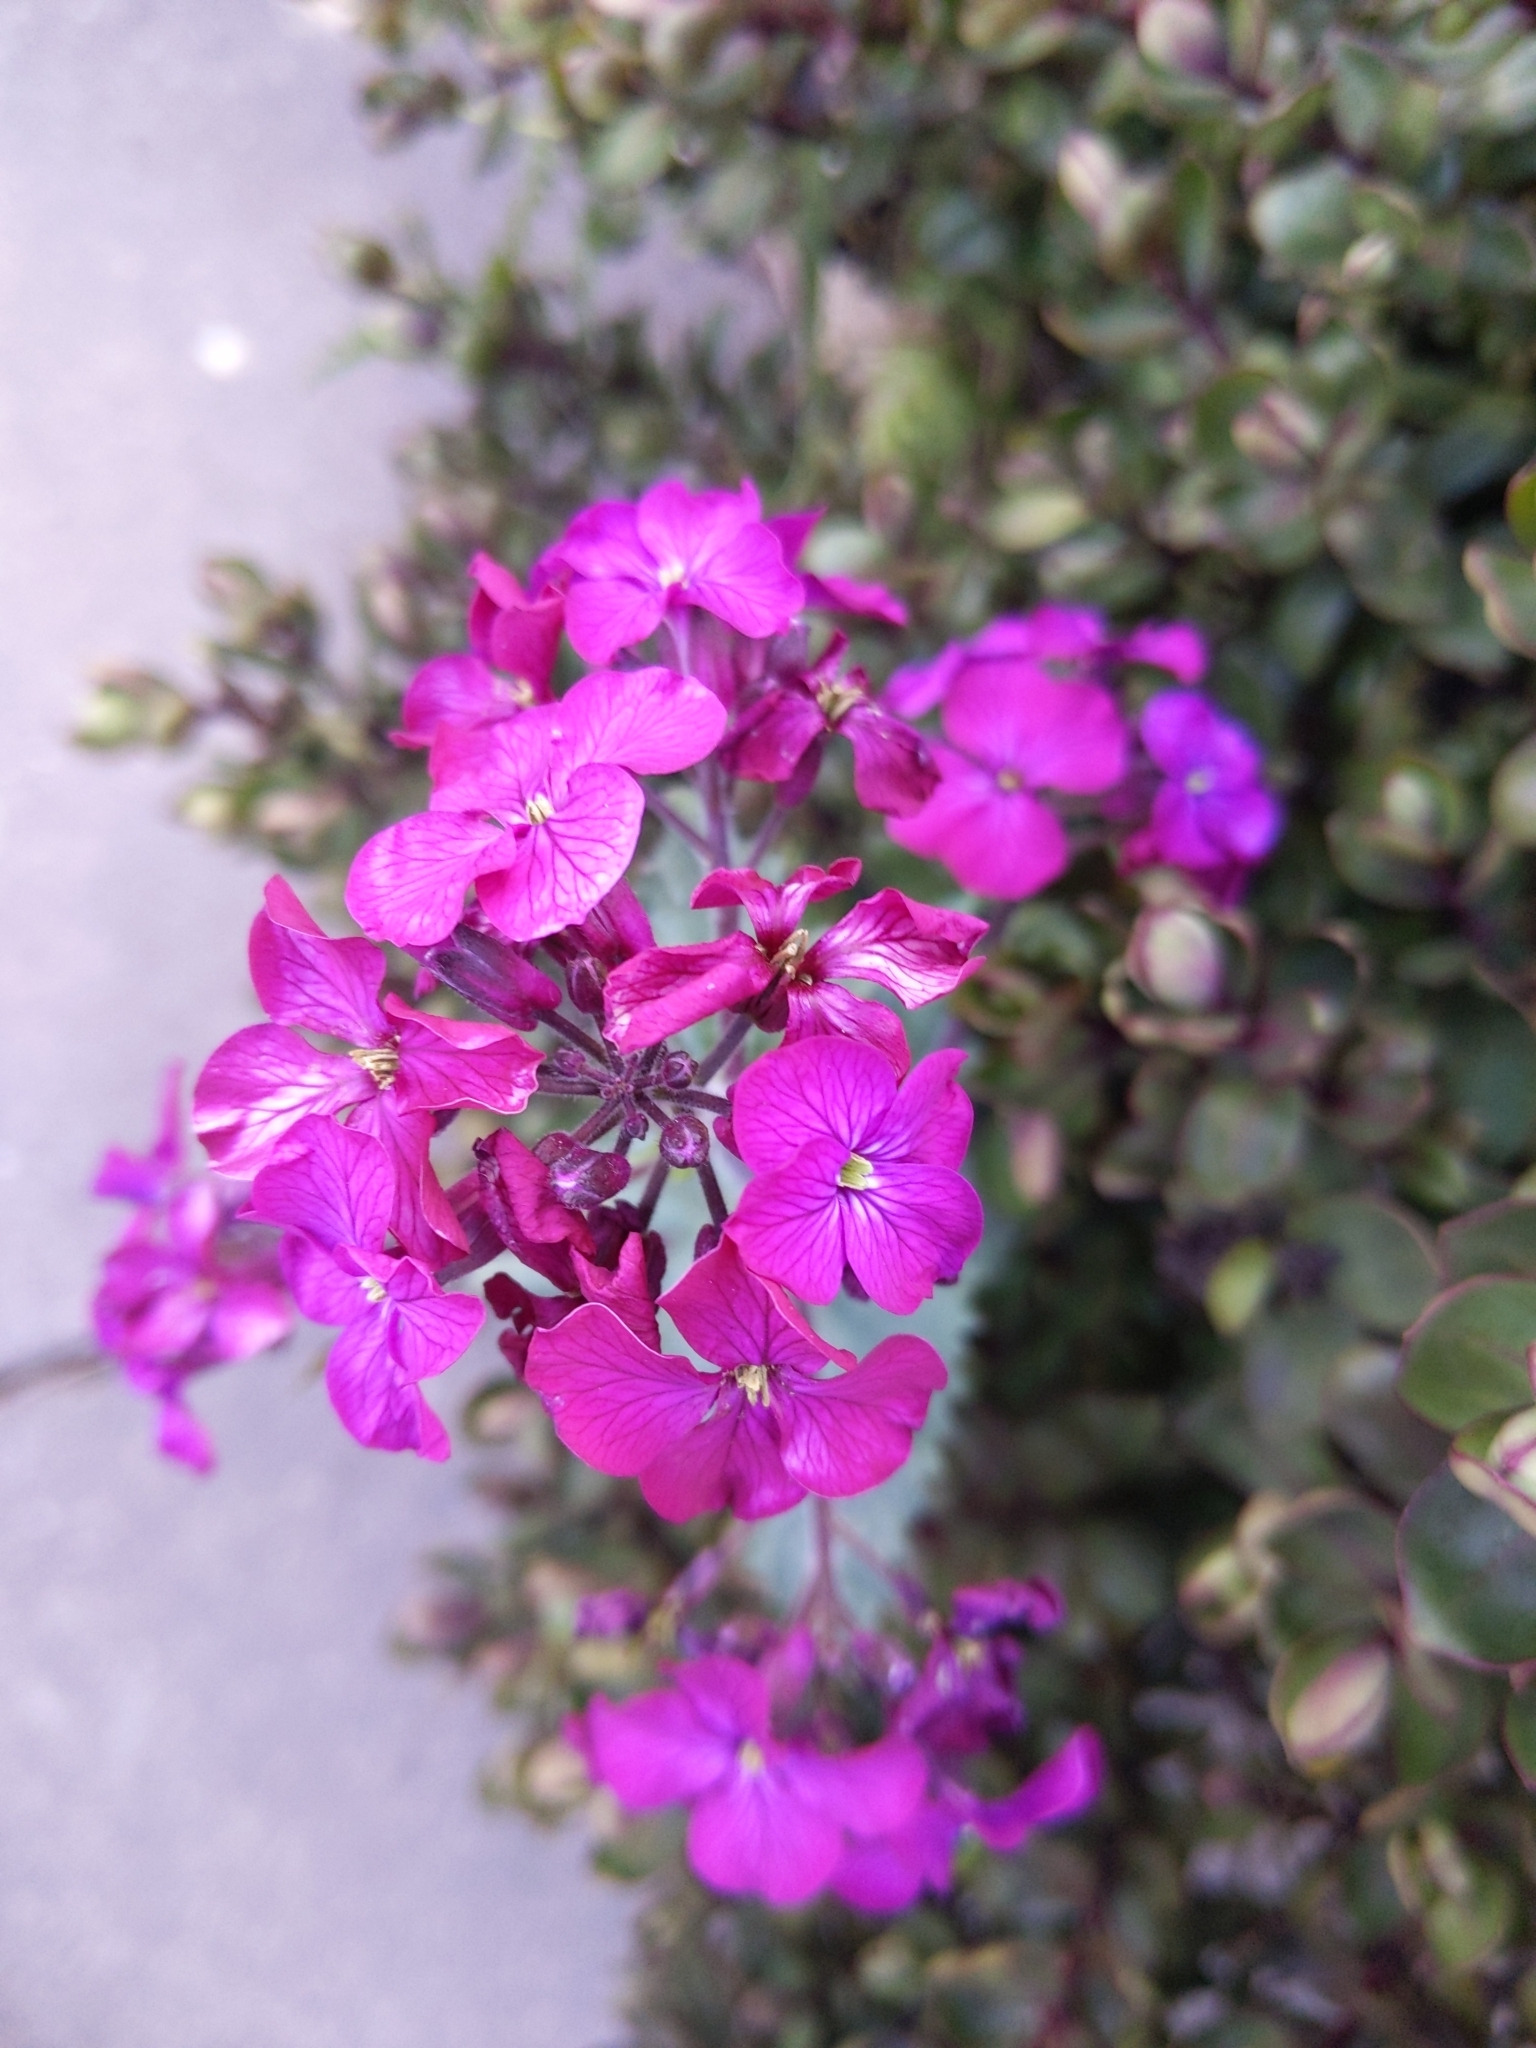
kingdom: Plantae
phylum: Tracheophyta
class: Magnoliopsida
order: Brassicales
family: Brassicaceae
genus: Lunaria
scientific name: Lunaria annua
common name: Honesty
